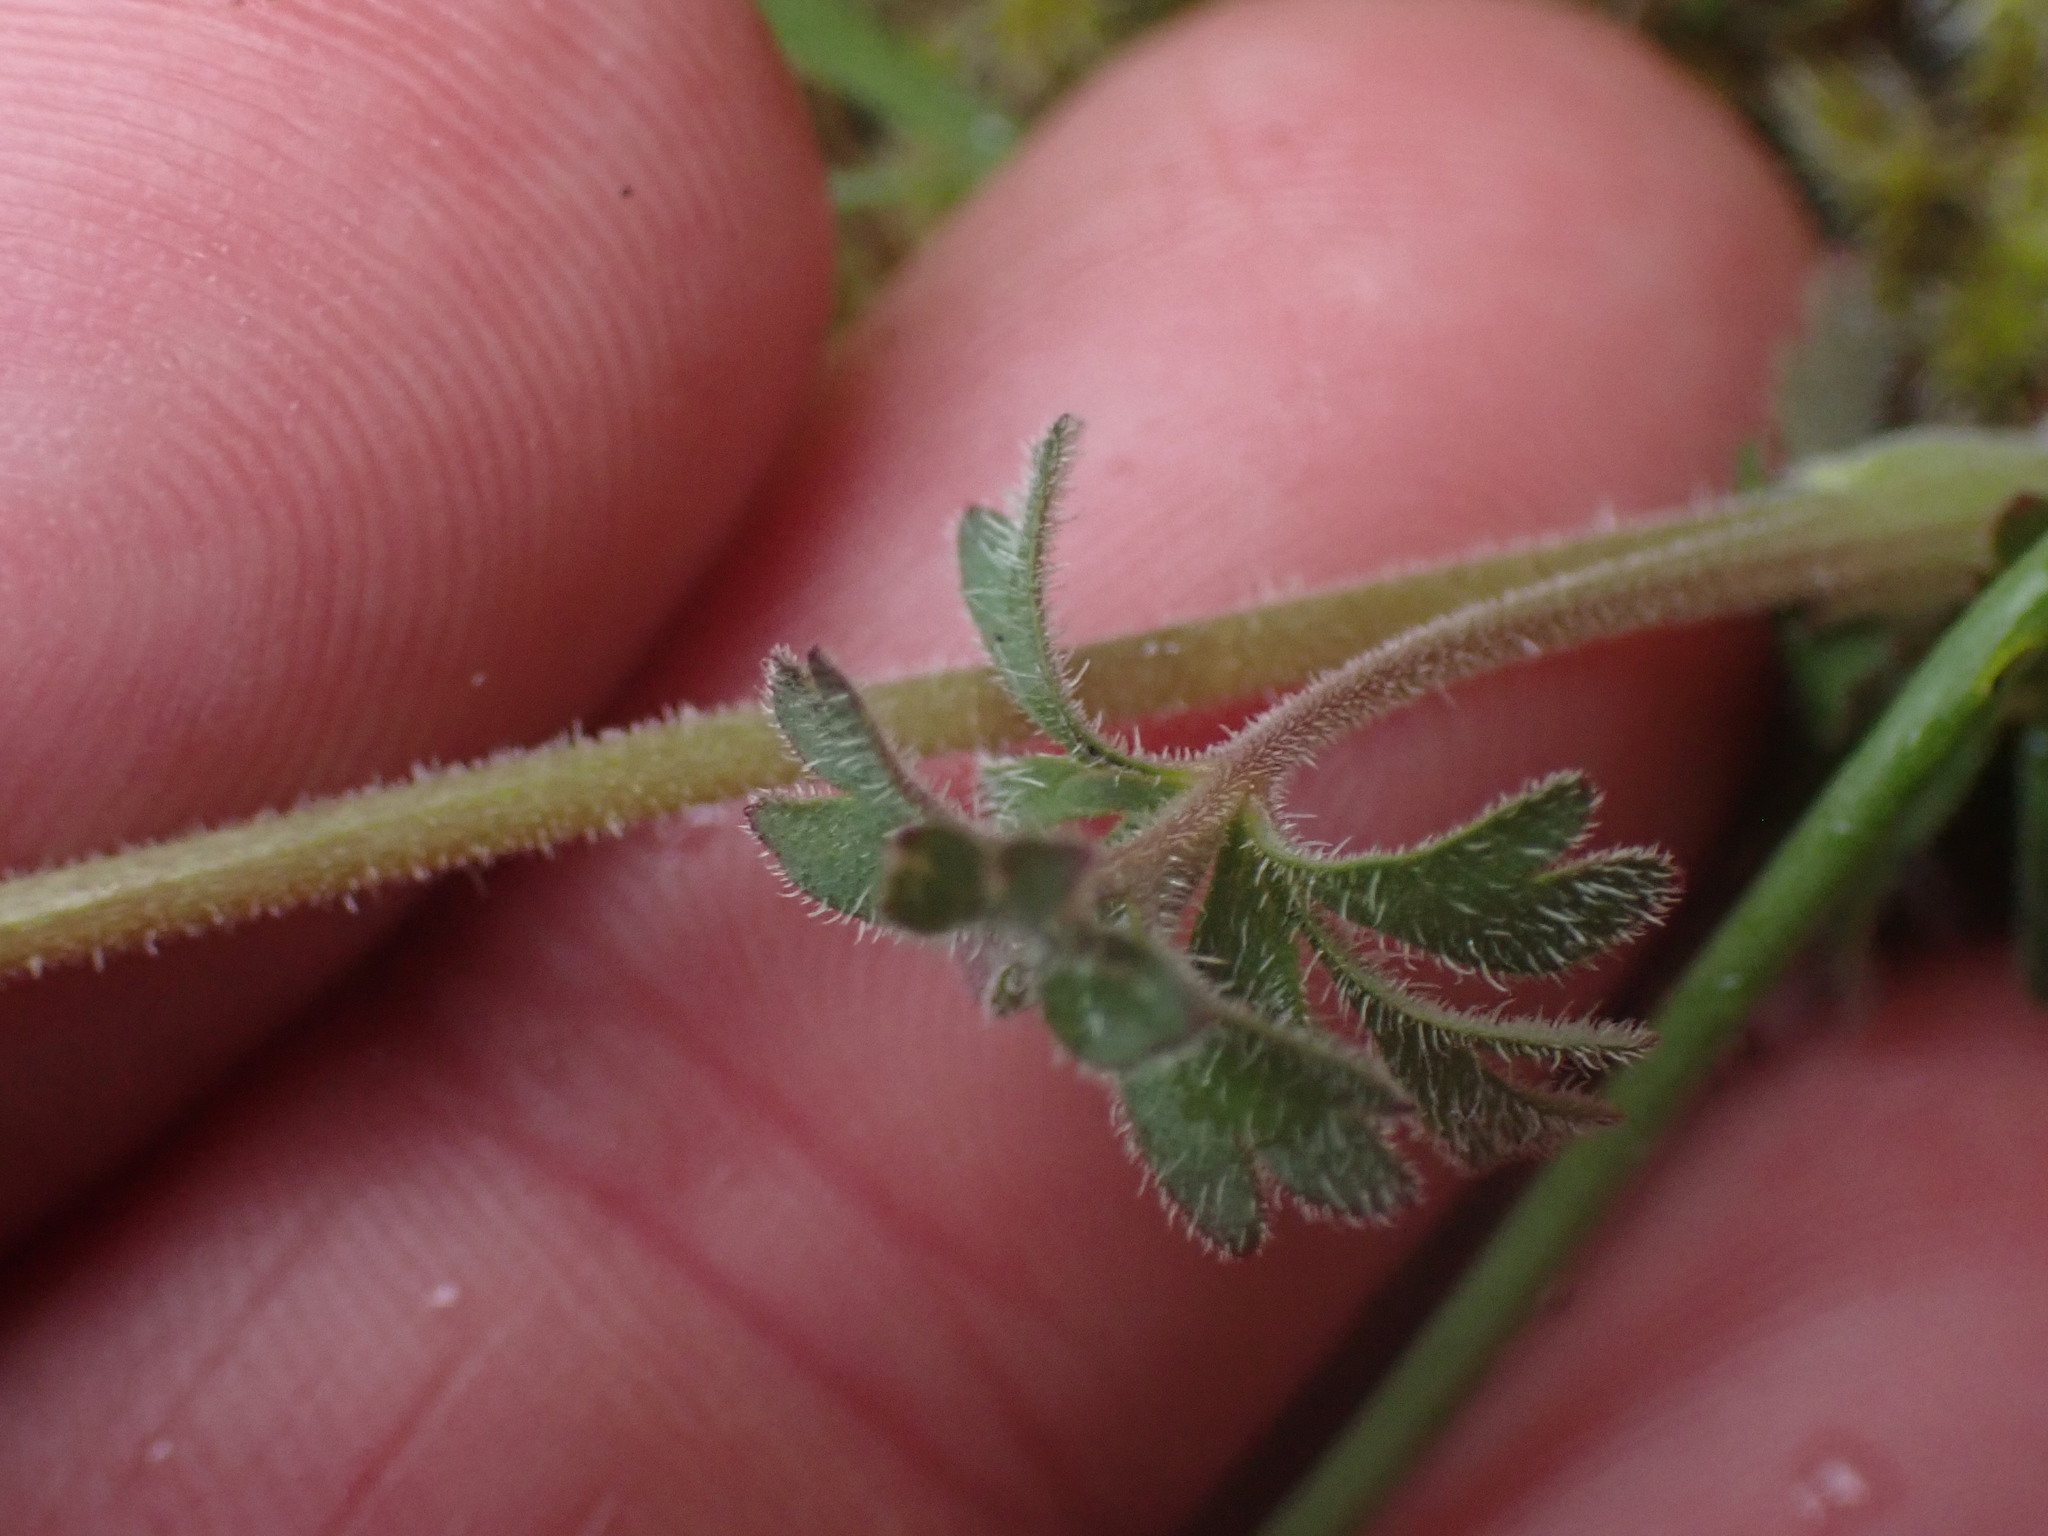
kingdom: Plantae
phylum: Tracheophyta
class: Magnoliopsida
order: Saxifragales
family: Saxifragaceae
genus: Lithophragma
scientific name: Lithophragma parviflorum
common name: Small-flowered fringe-cup
